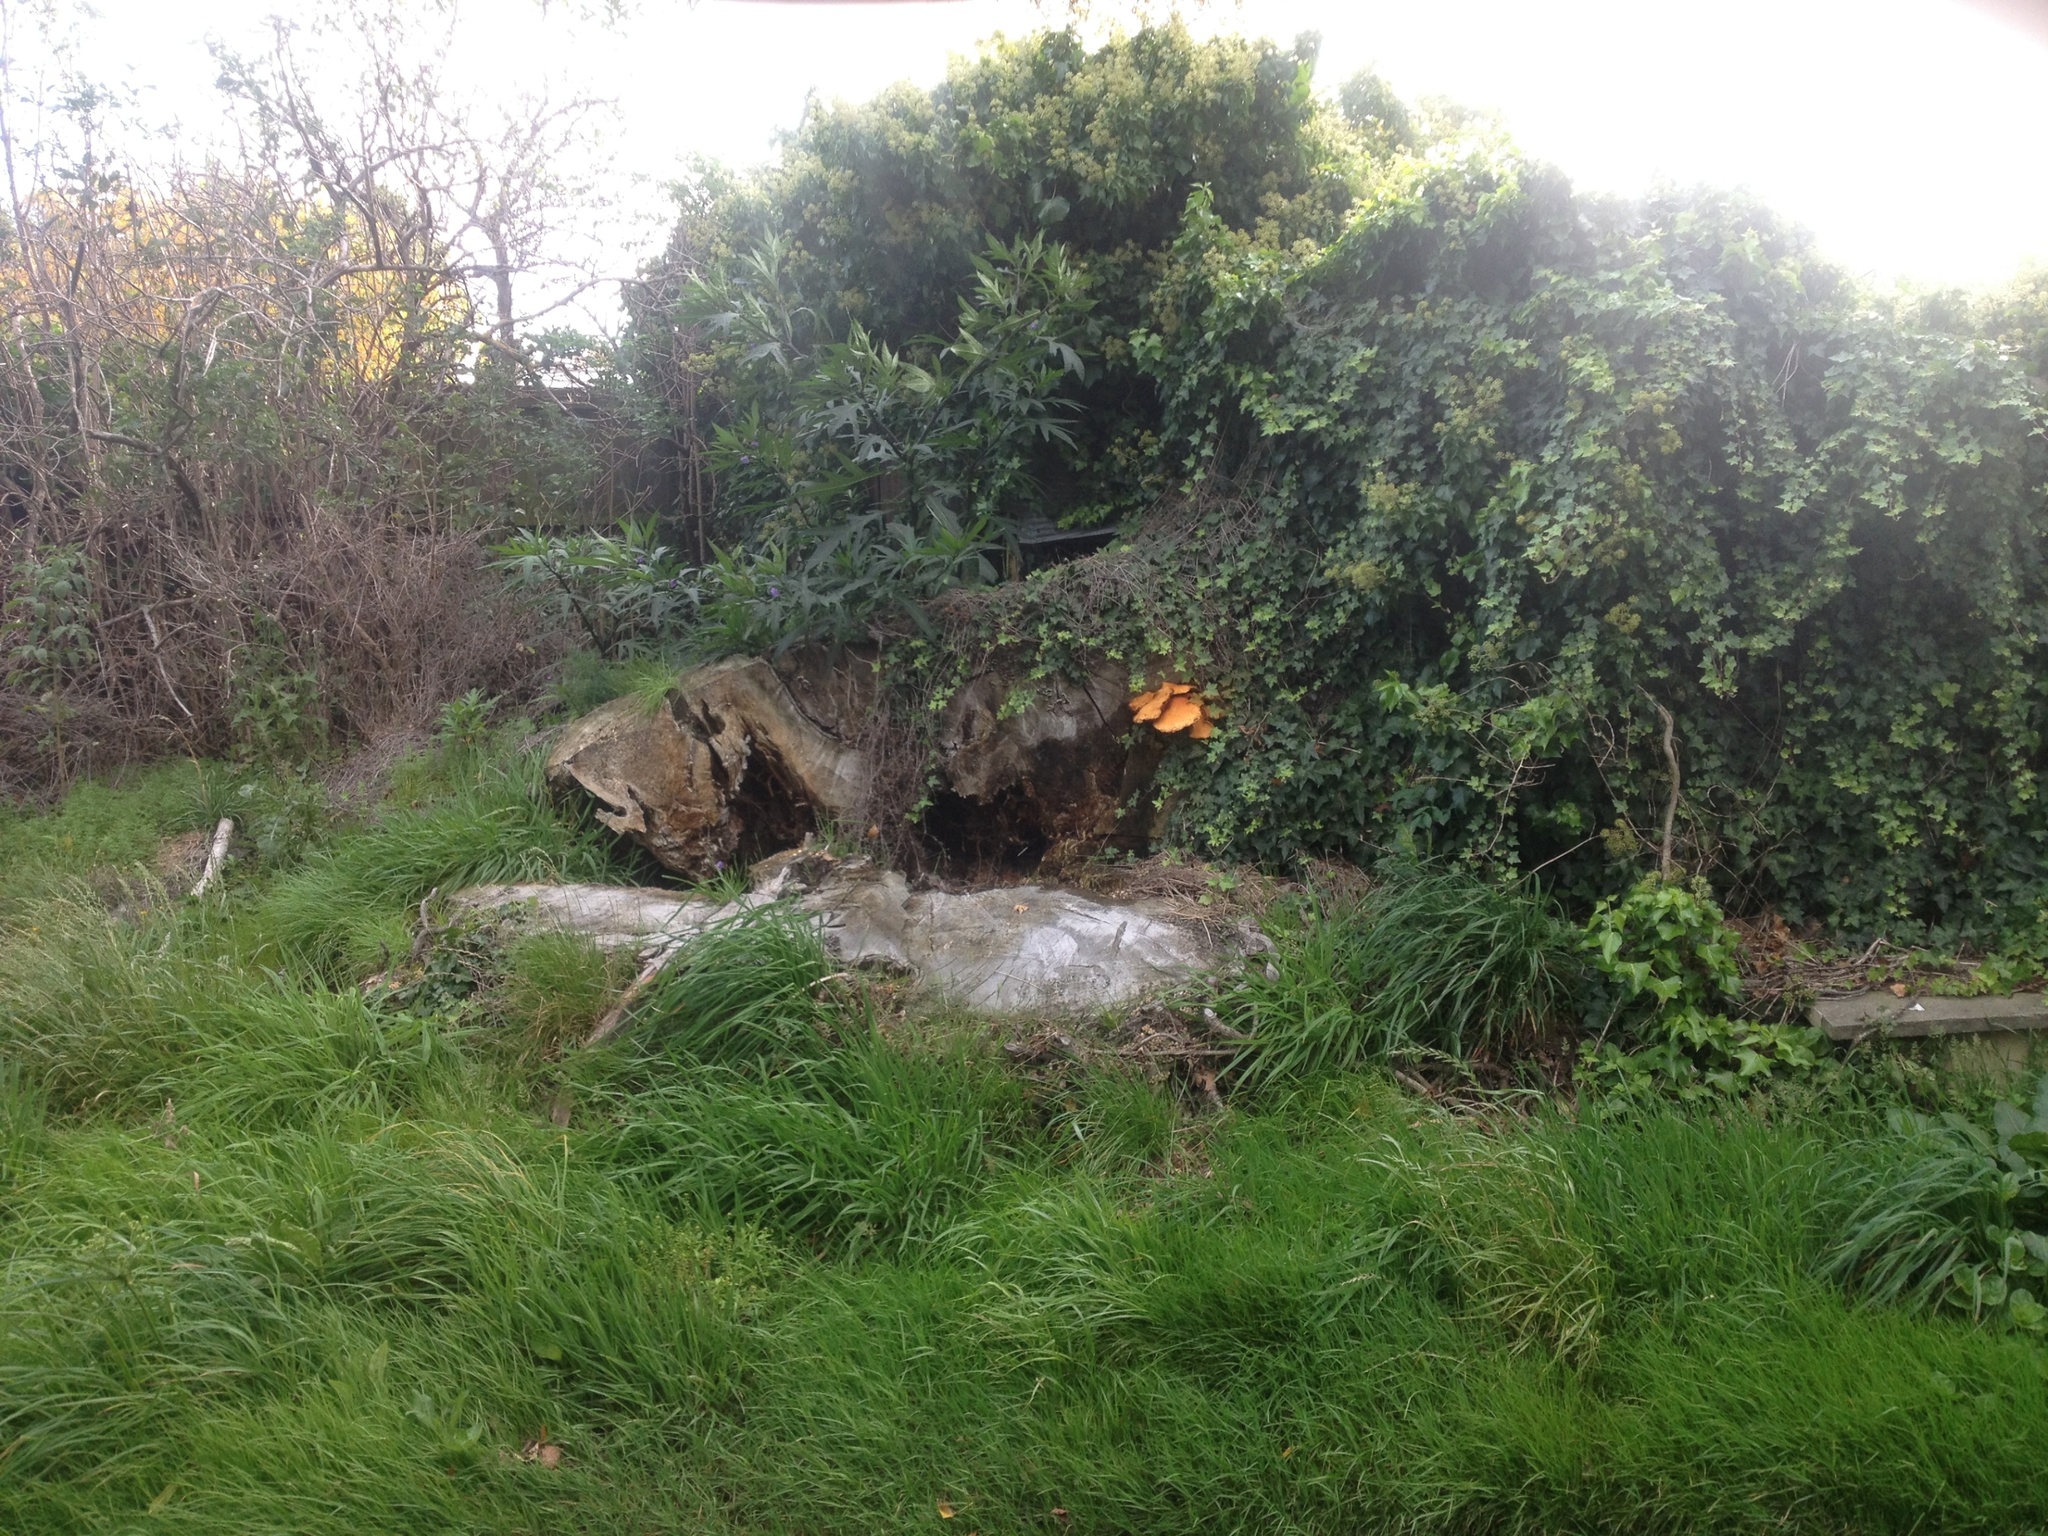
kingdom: Fungi
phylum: Basidiomycota
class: Agaricomycetes
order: Agaricales
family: Hymenogastraceae
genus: Gymnopilus
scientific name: Gymnopilus junonius
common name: Spectacular rustgill
